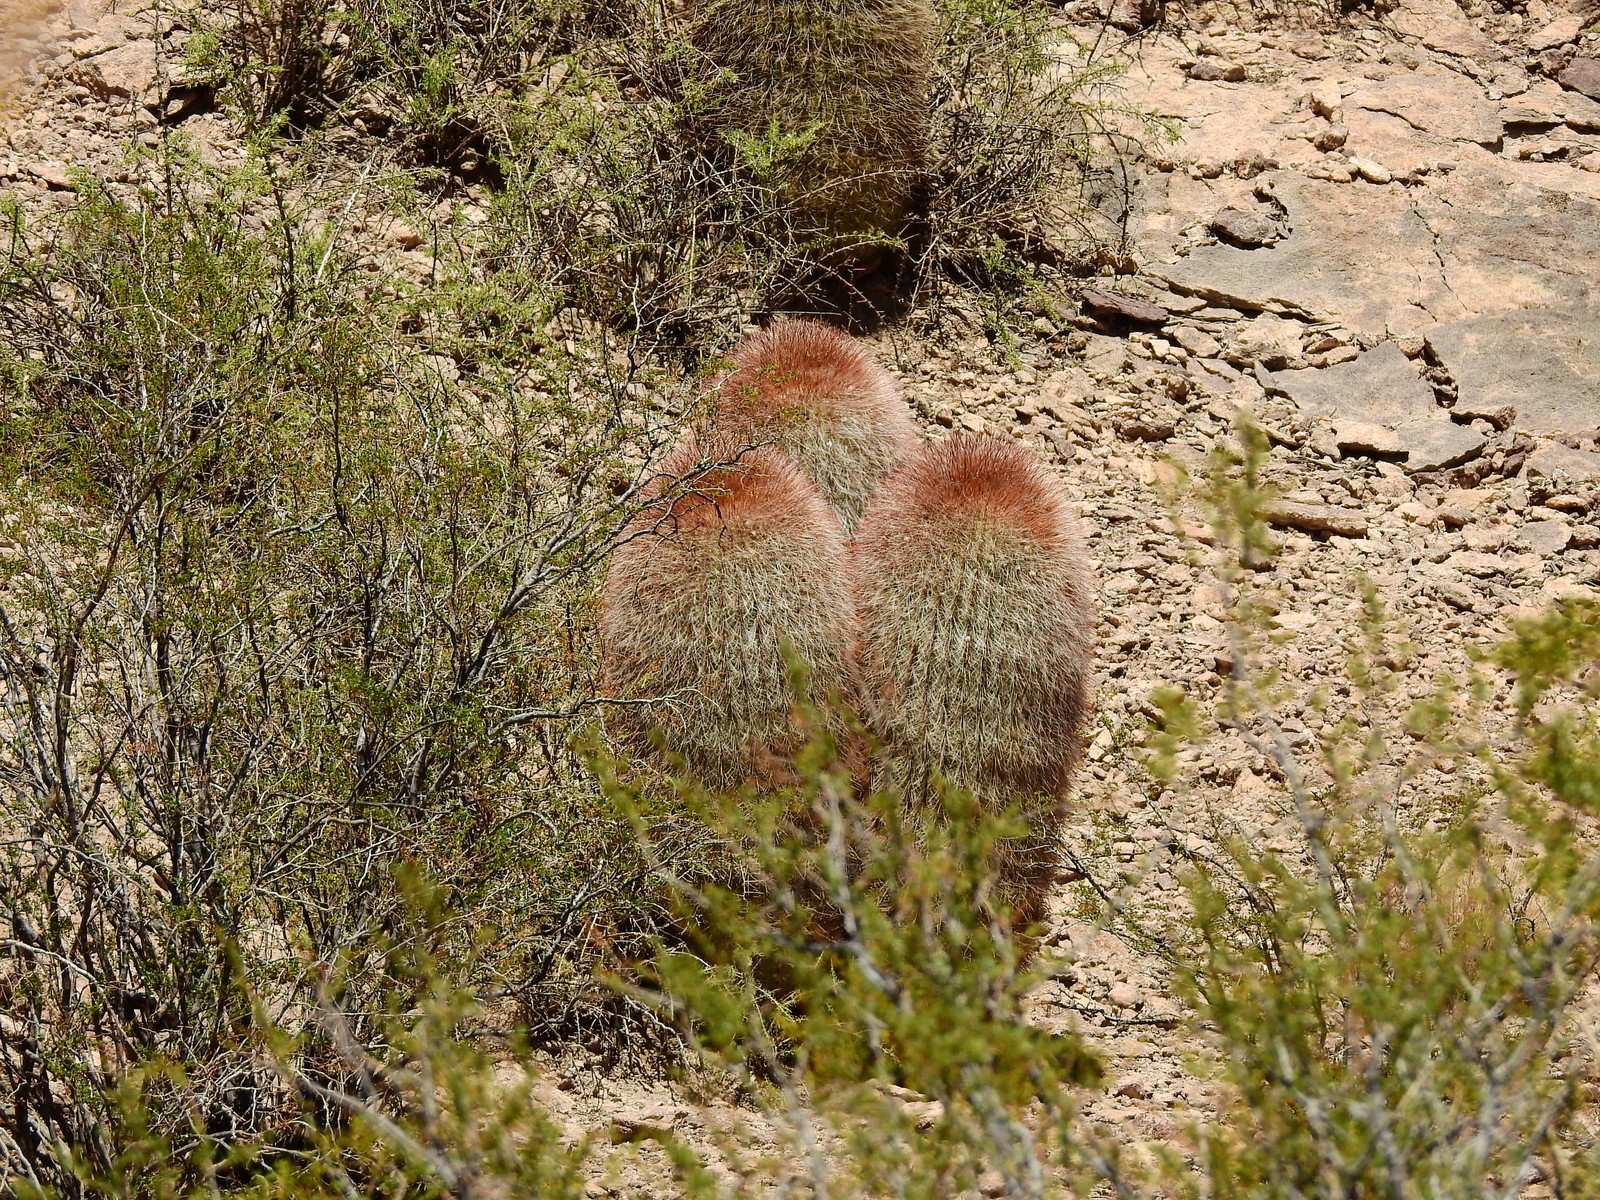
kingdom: Plantae
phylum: Tracheophyta
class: Magnoliopsida
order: Caryophyllales
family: Cactaceae
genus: Denmoza
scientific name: Denmoza rhodacantha
